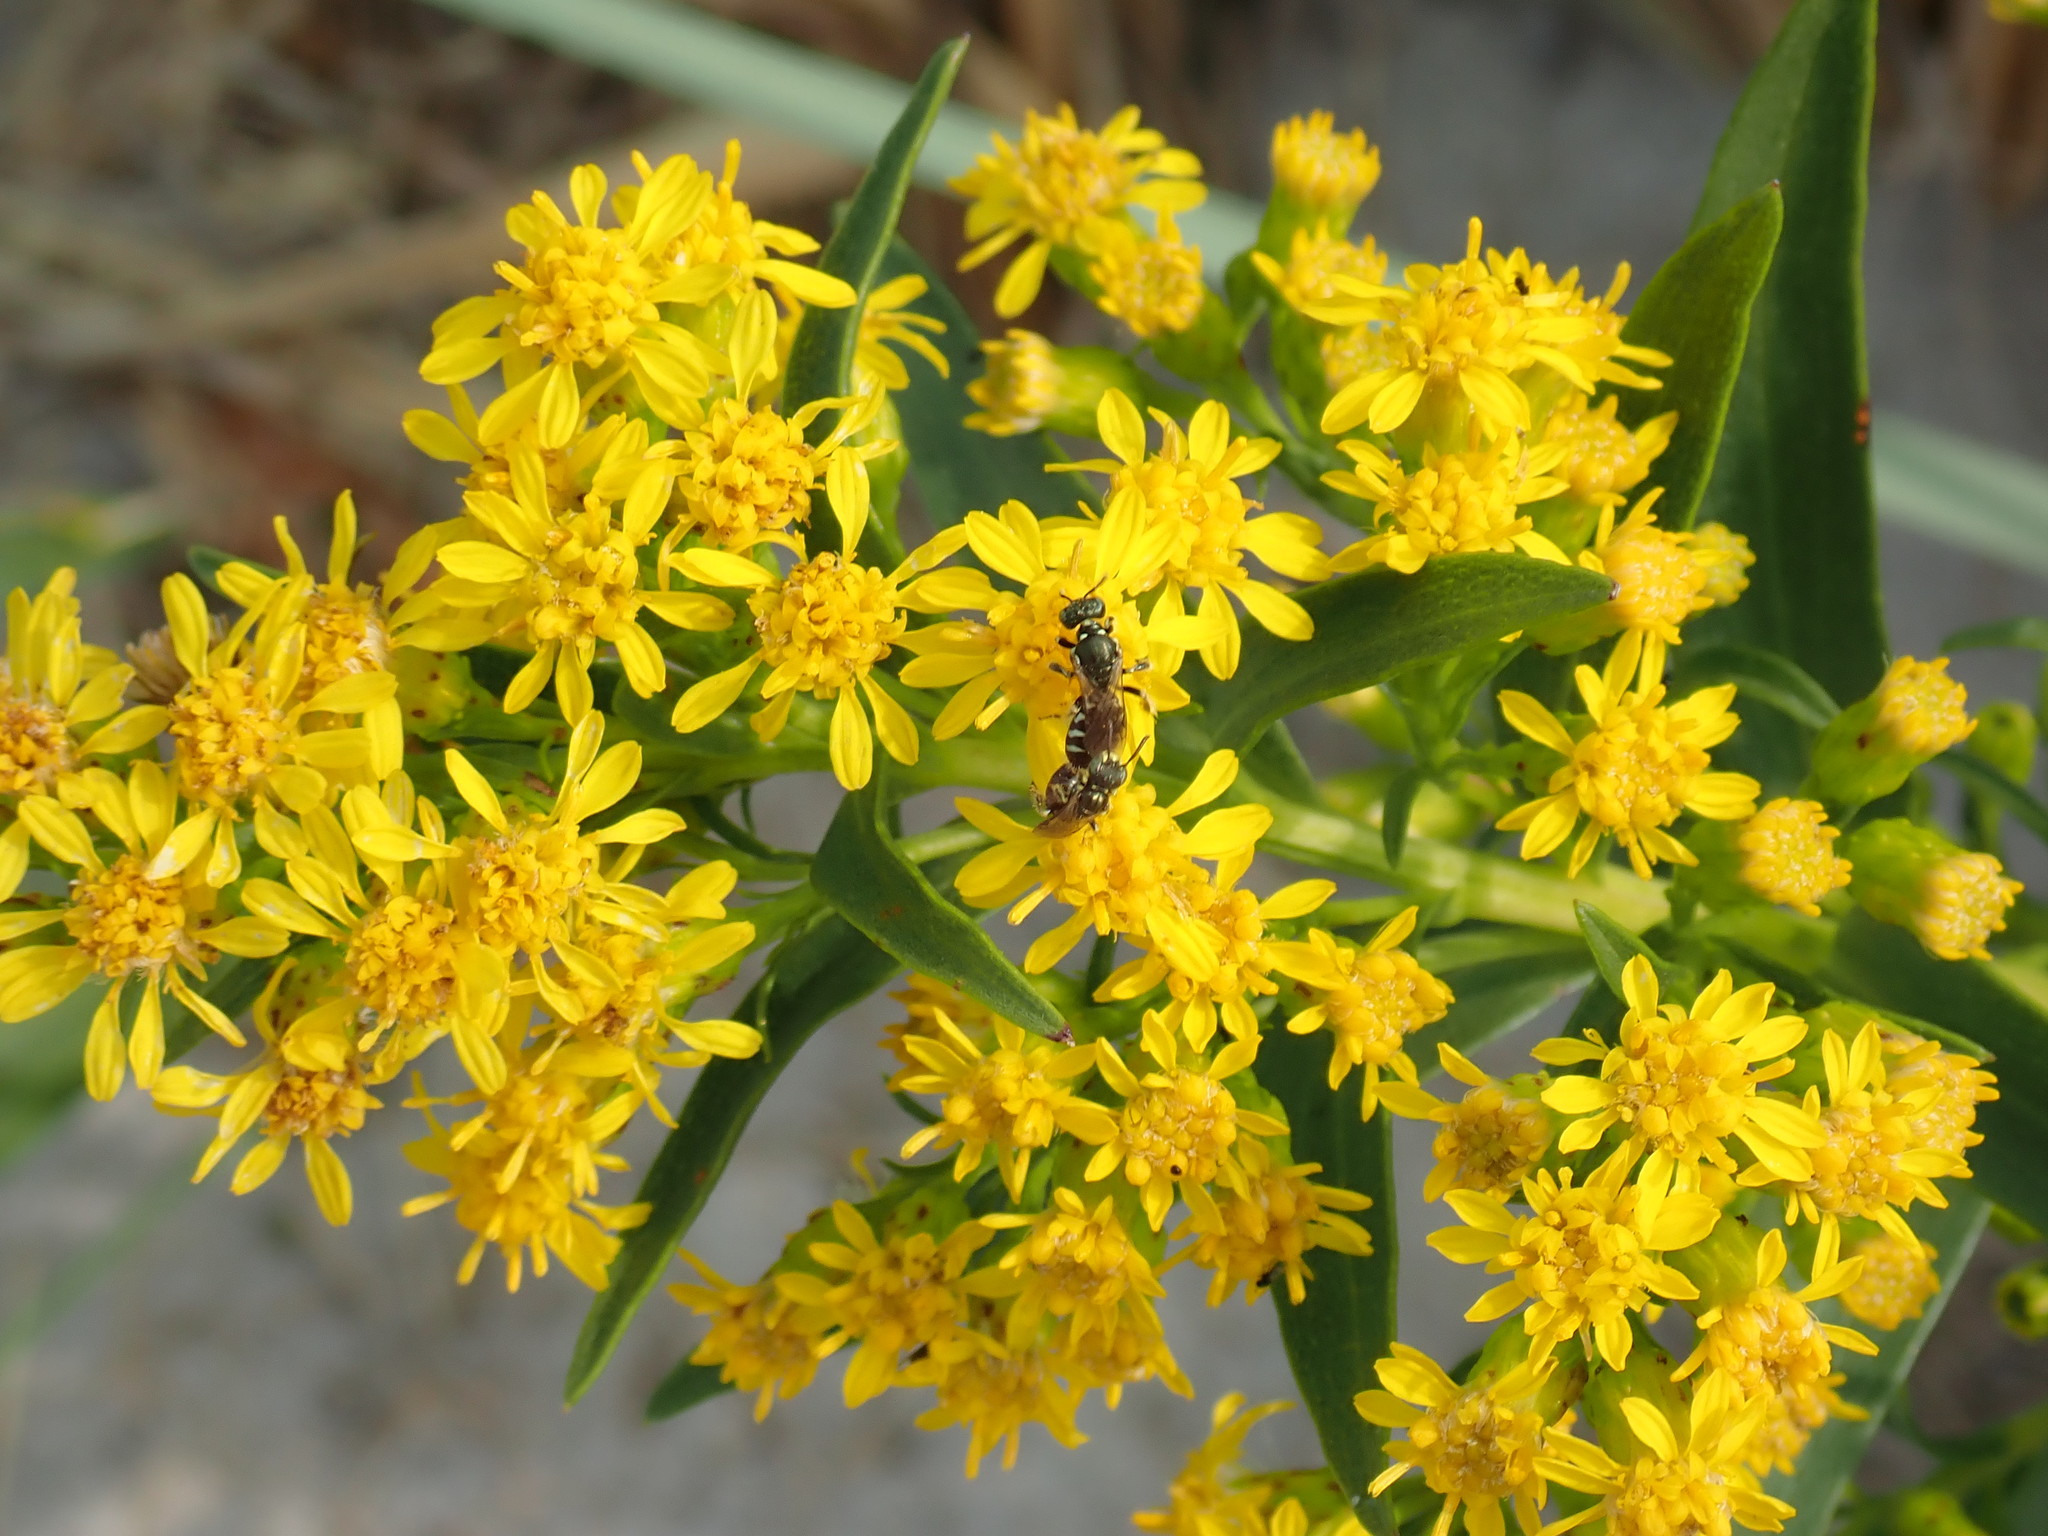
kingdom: Animalia
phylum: Arthropoda
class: Insecta
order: Hymenoptera
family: Andrenidae
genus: Perdita
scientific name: Perdita octomaculata
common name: Eight-spotted miner bee
